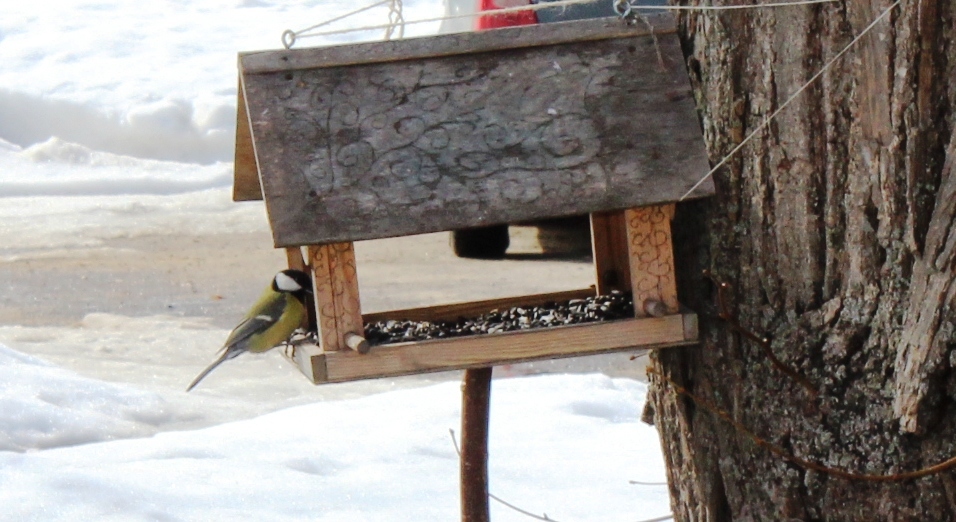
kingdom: Animalia
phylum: Chordata
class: Aves
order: Passeriformes
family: Paridae
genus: Parus
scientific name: Parus major
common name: Great tit
